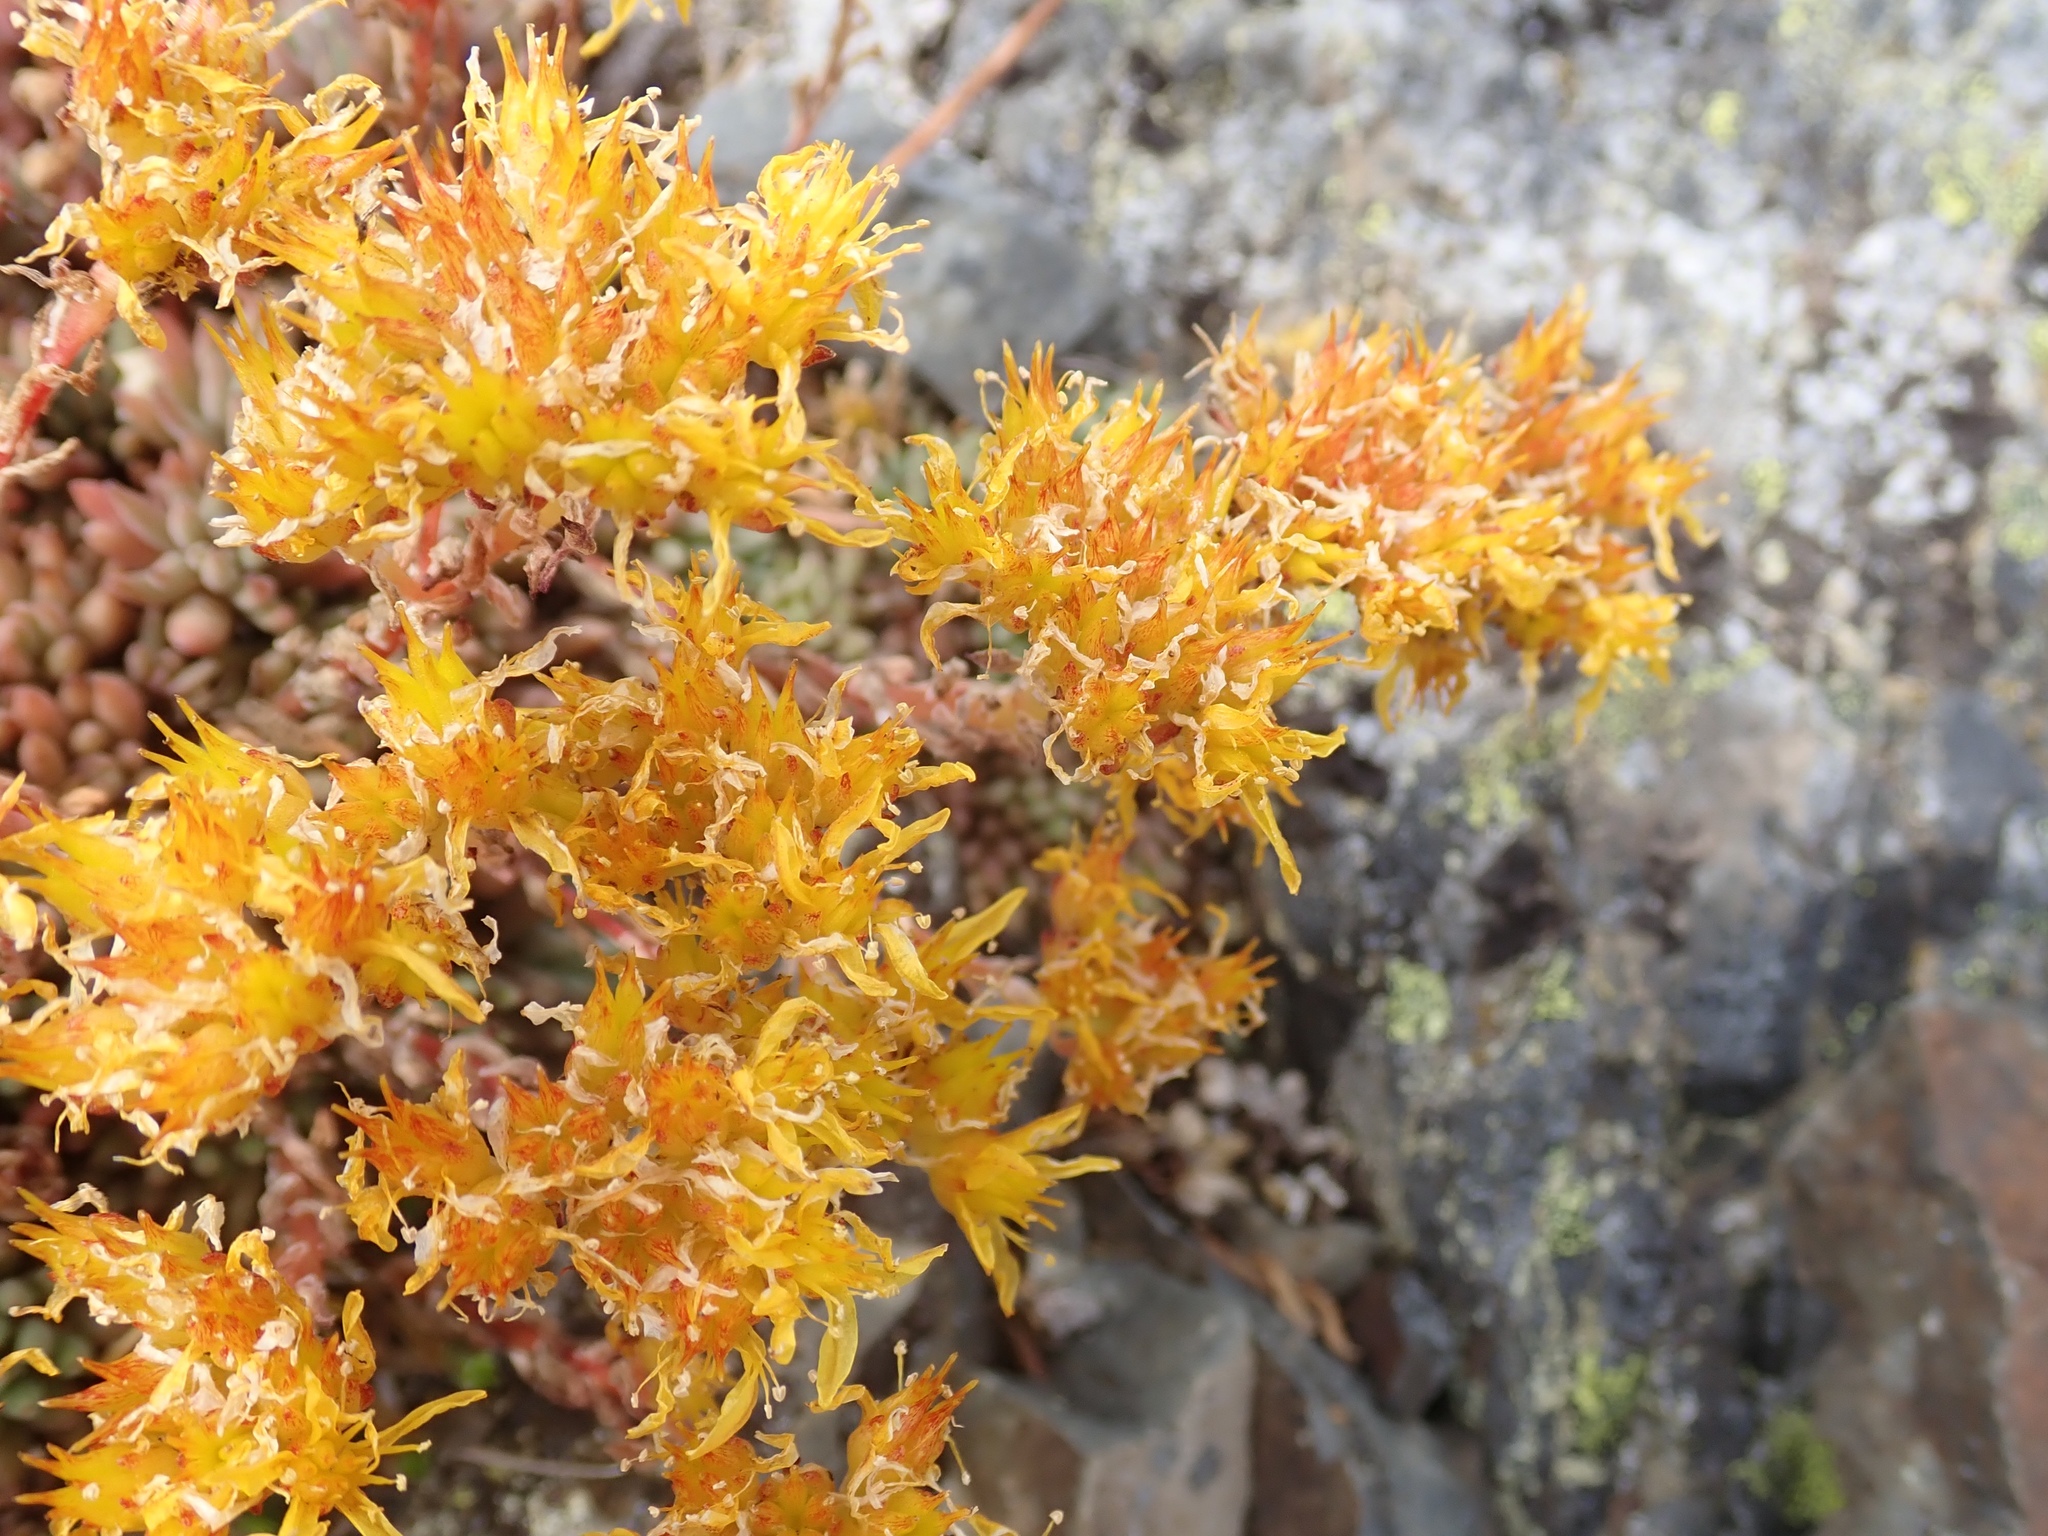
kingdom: Plantae
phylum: Tracheophyta
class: Magnoliopsida
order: Saxifragales
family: Crassulaceae
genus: Sedum
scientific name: Sedum lanceolatum
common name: Common stonecrop
